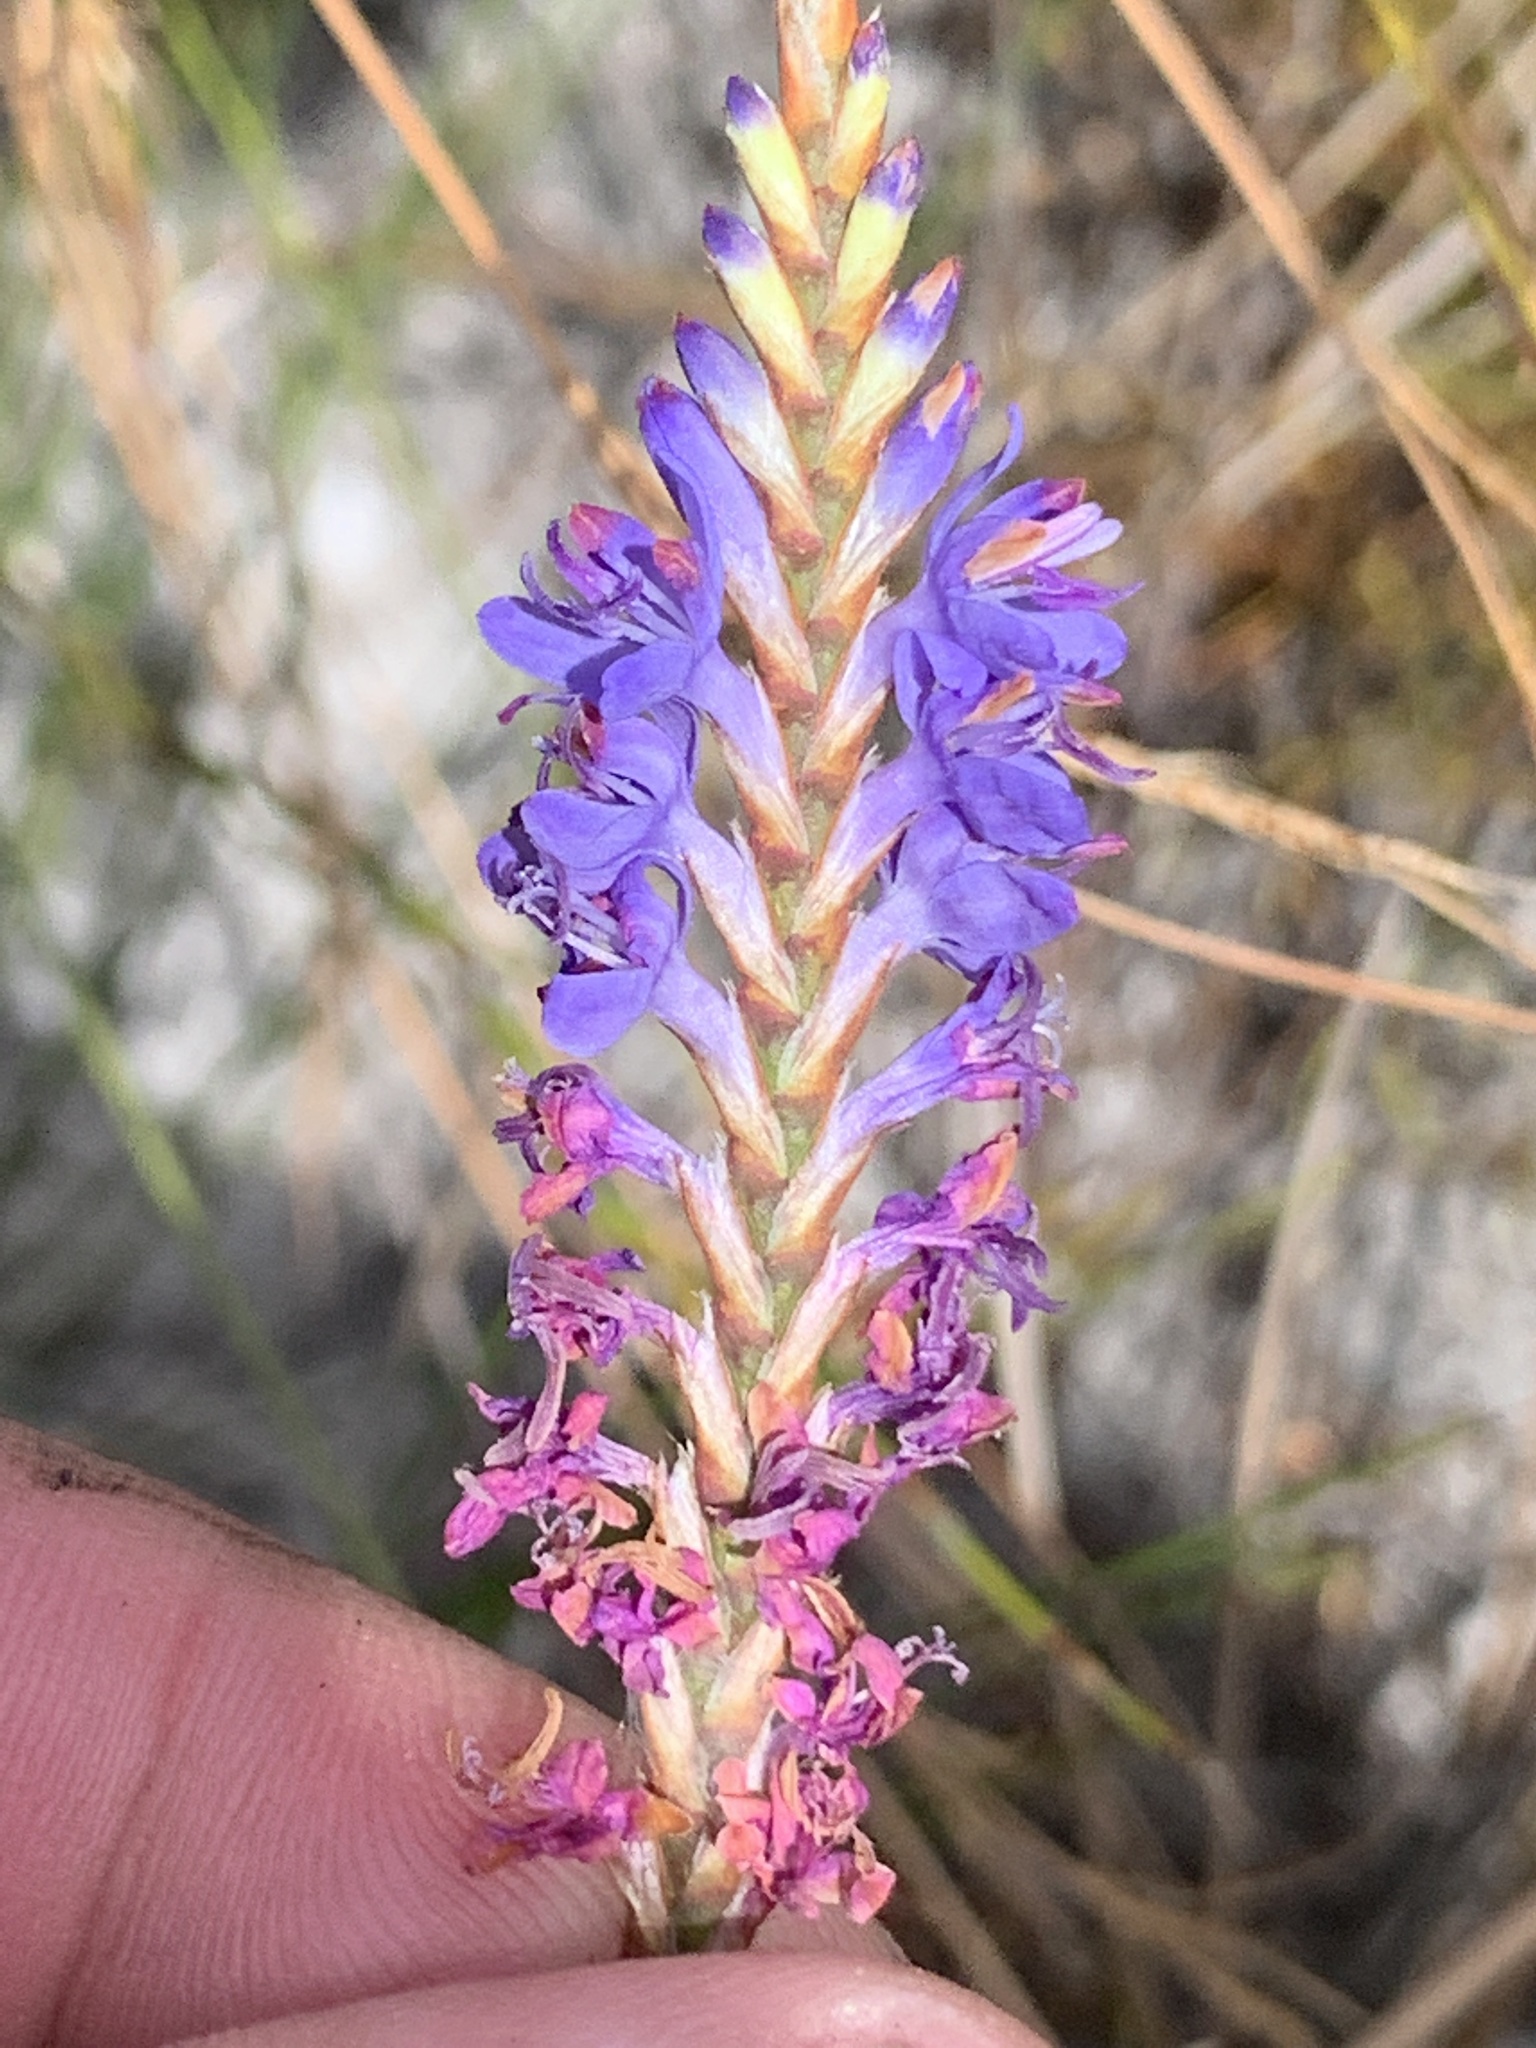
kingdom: Plantae
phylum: Tracheophyta
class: Liliopsida
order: Asparagales
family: Iridaceae
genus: Micranthus
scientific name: Micranthus alopecuroides
